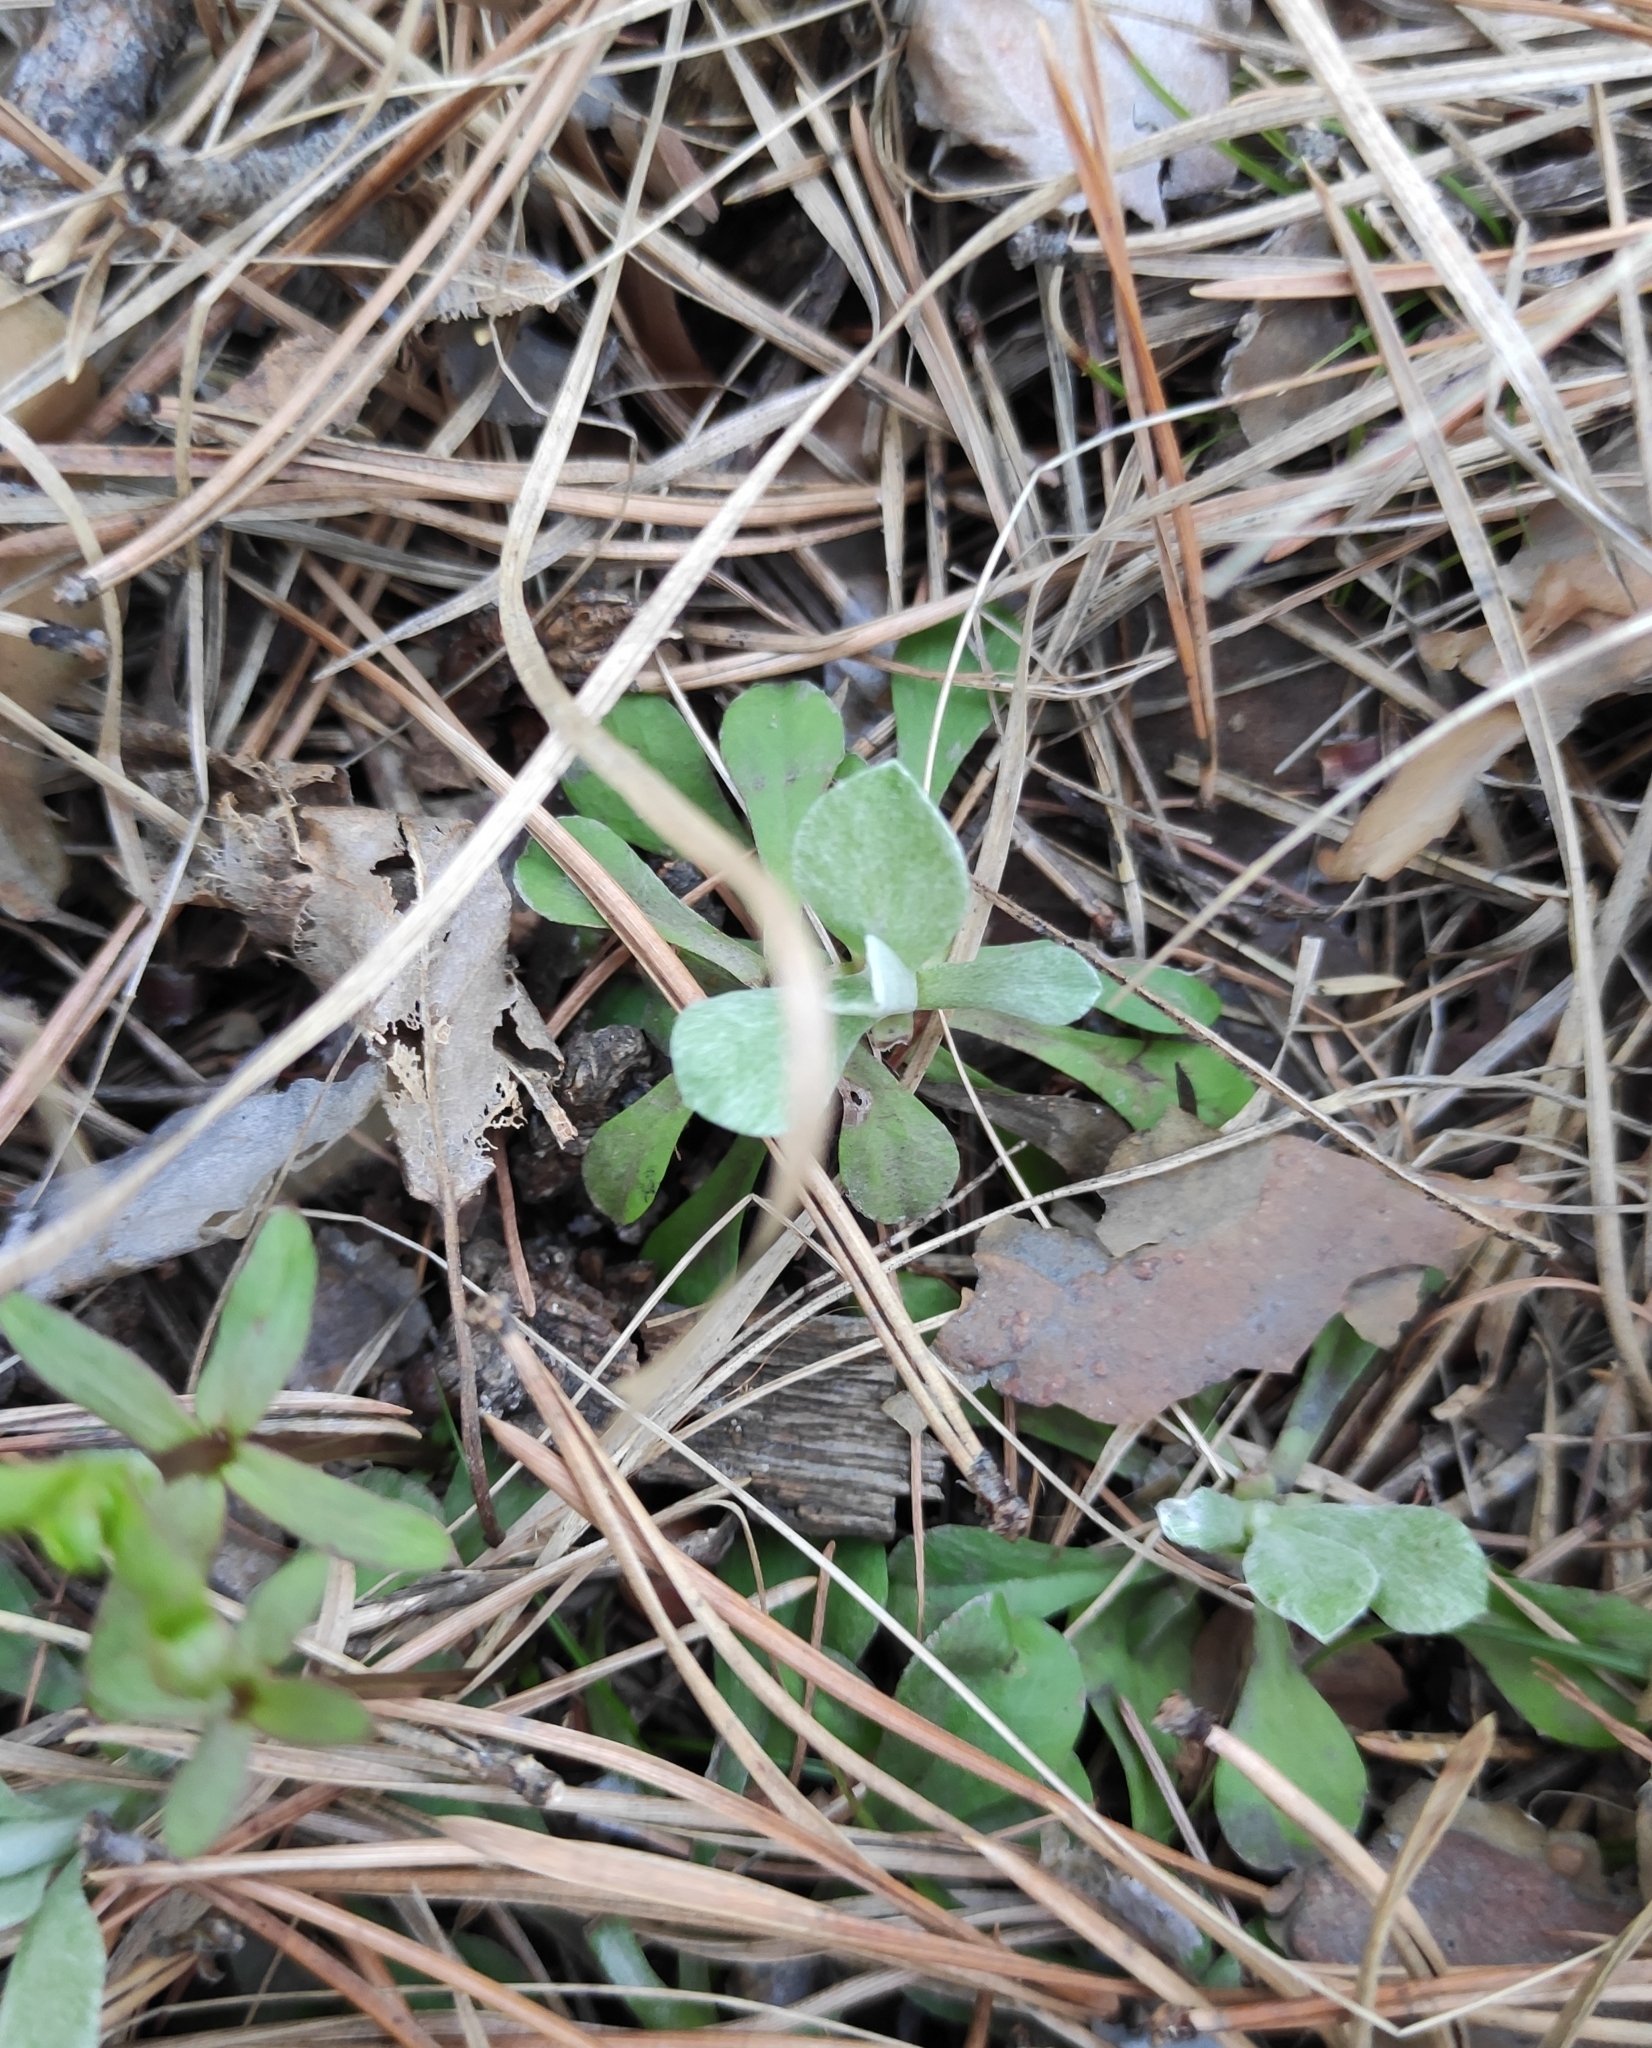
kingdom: Plantae
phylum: Tracheophyta
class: Magnoliopsida
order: Asterales
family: Asteraceae
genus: Antennaria
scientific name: Antennaria dioica
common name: Mountain everlasting
